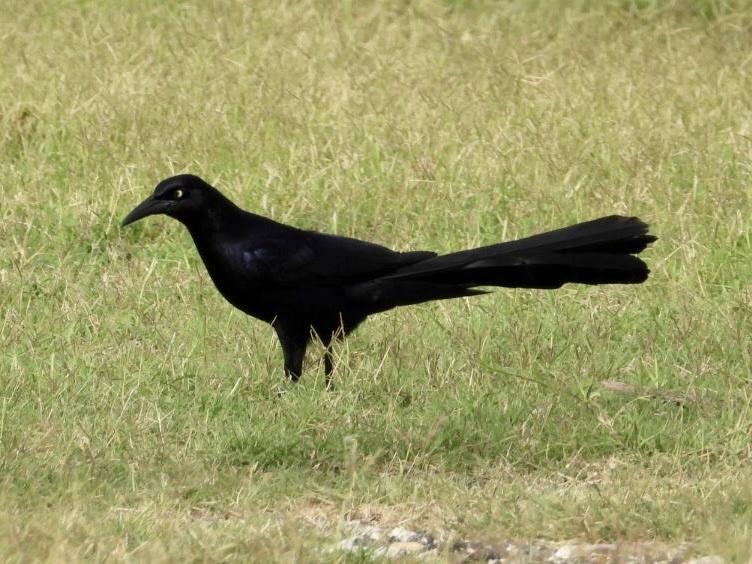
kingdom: Animalia
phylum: Chordata
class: Aves
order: Passeriformes
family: Icteridae
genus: Quiscalus
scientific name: Quiscalus mexicanus
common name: Great-tailed grackle
